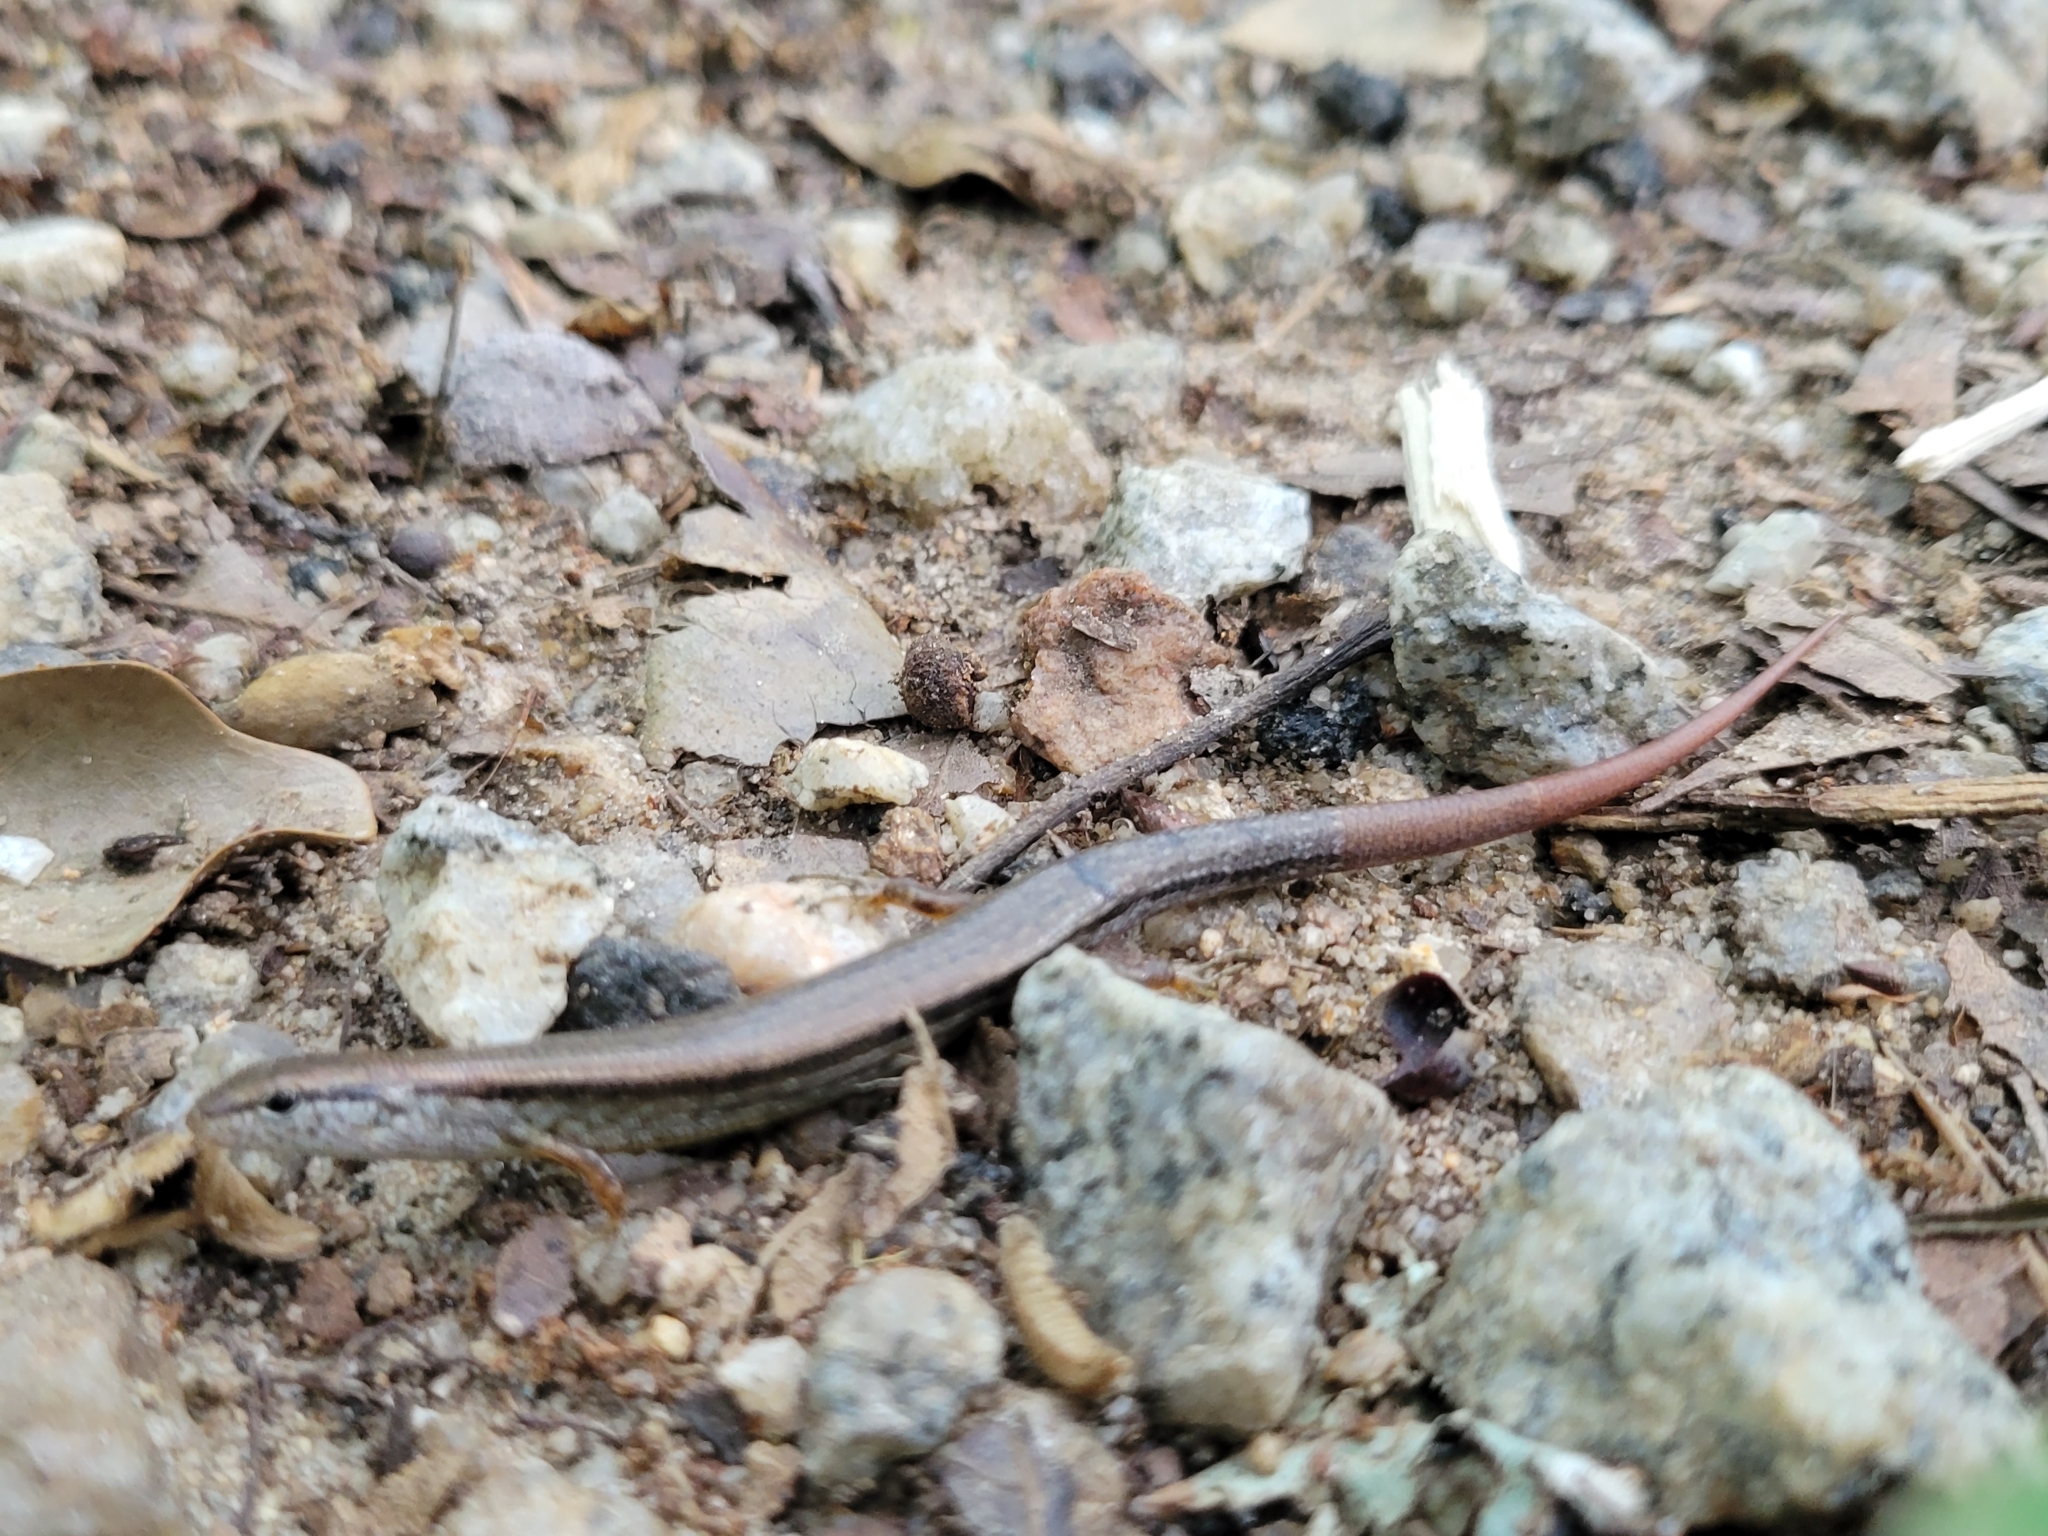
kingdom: Animalia
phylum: Chordata
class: Squamata
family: Scincidae
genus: Scincella
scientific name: Scincella lateralis
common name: Ground skink
